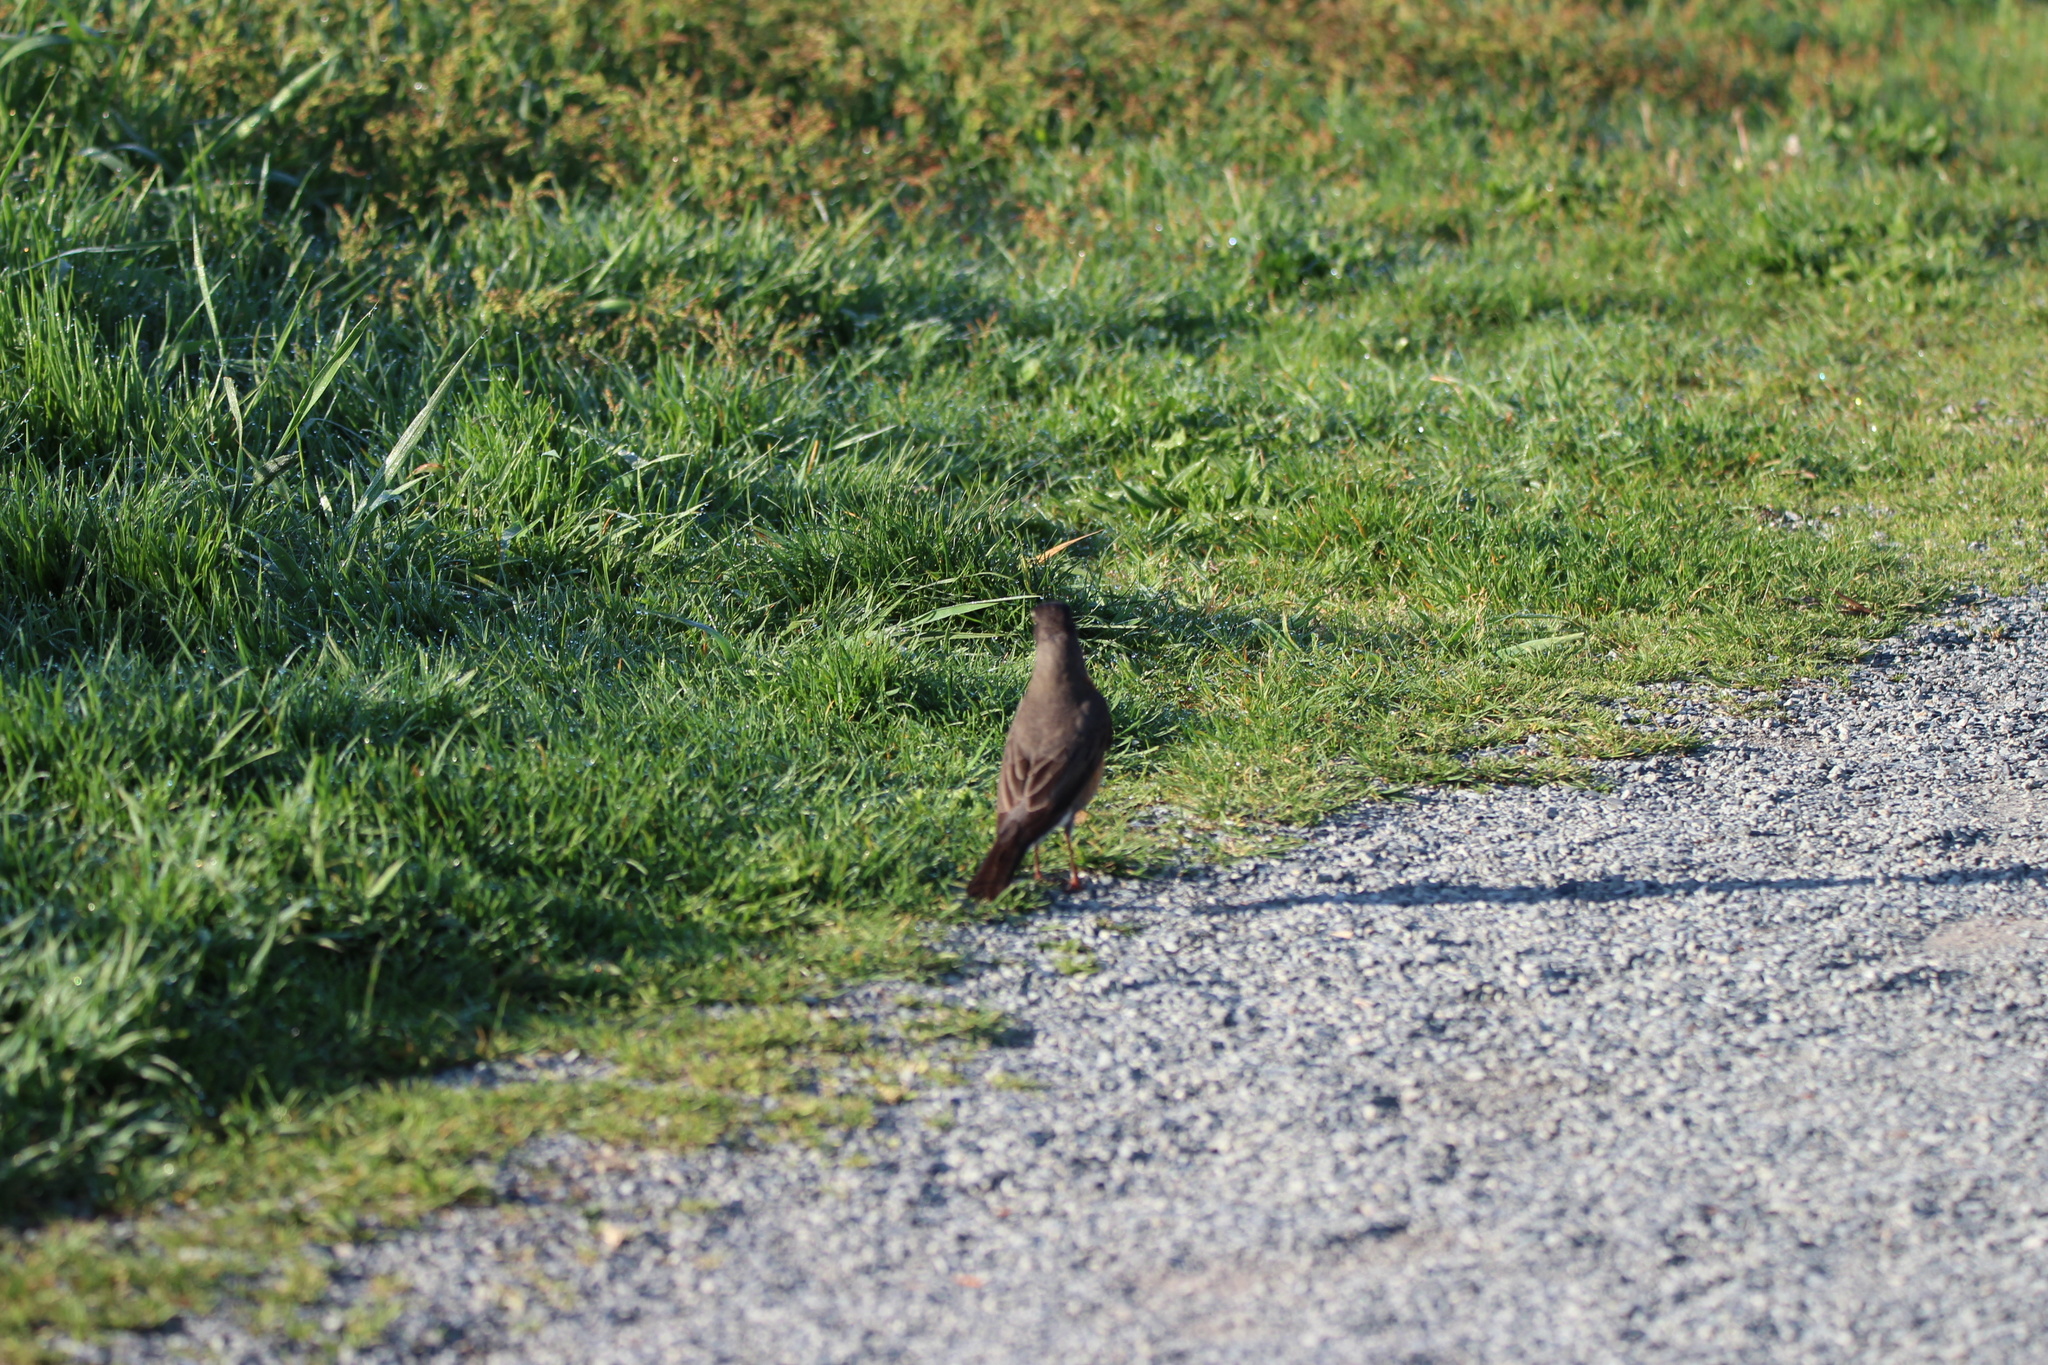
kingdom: Animalia
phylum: Chordata
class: Aves
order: Passeriformes
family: Turdidae
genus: Turdus
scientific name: Turdus migratorius
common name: American robin
